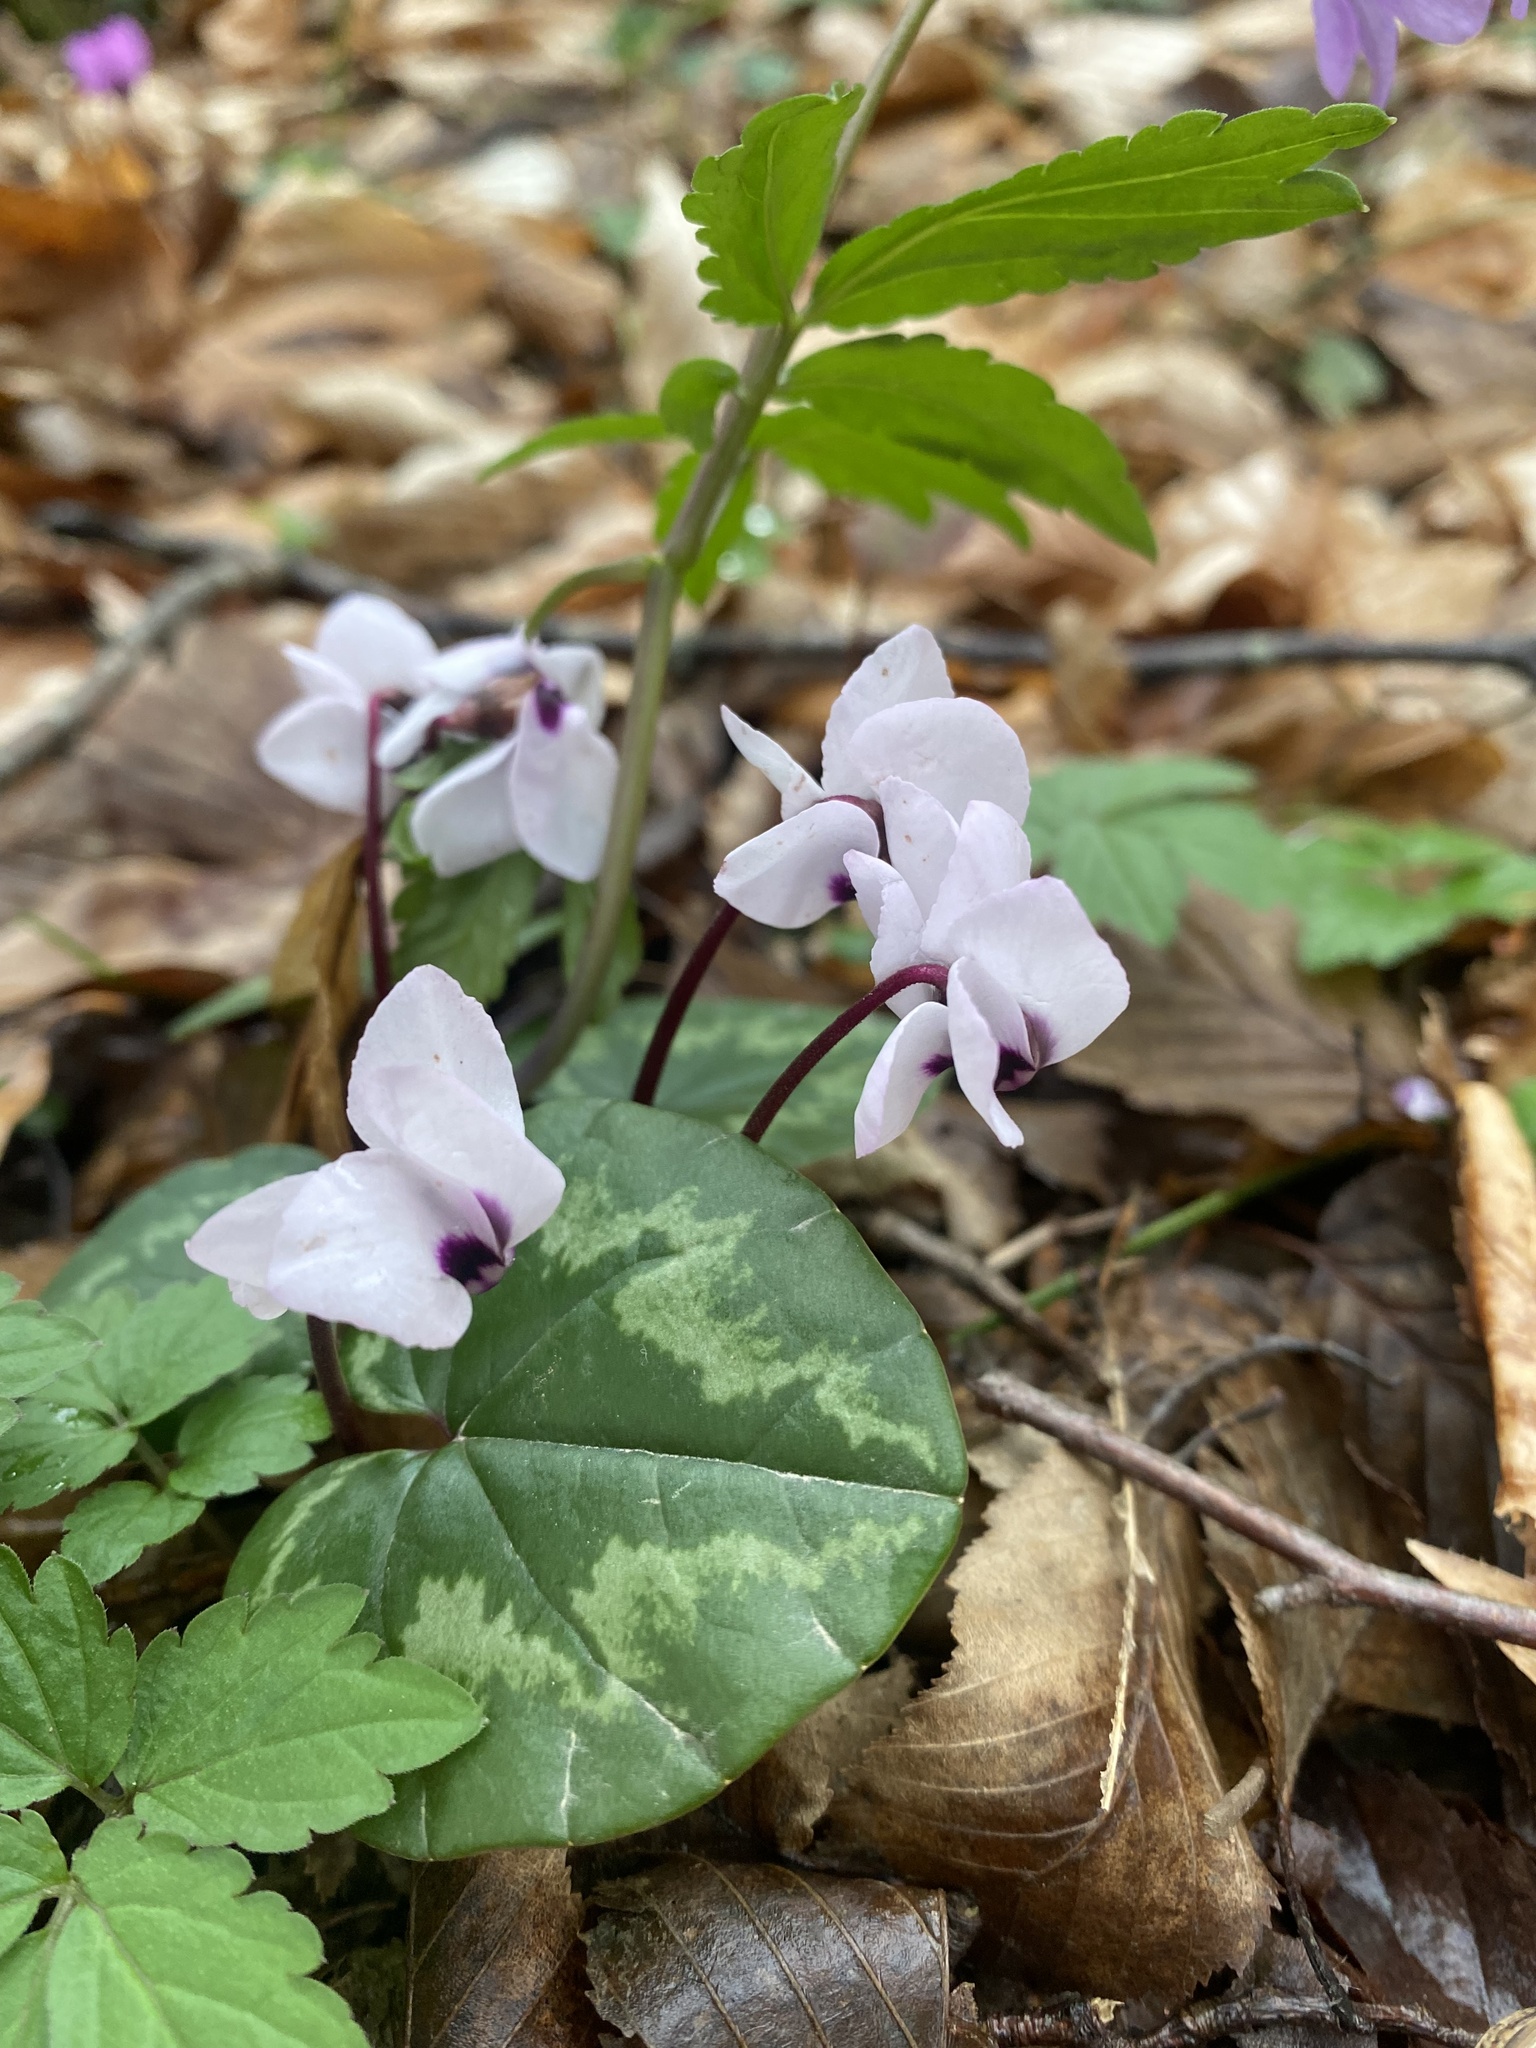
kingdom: Plantae
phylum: Tracheophyta
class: Magnoliopsida
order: Ericales
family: Primulaceae
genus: Cyclamen
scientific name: Cyclamen coum
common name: Eastern sowbread
